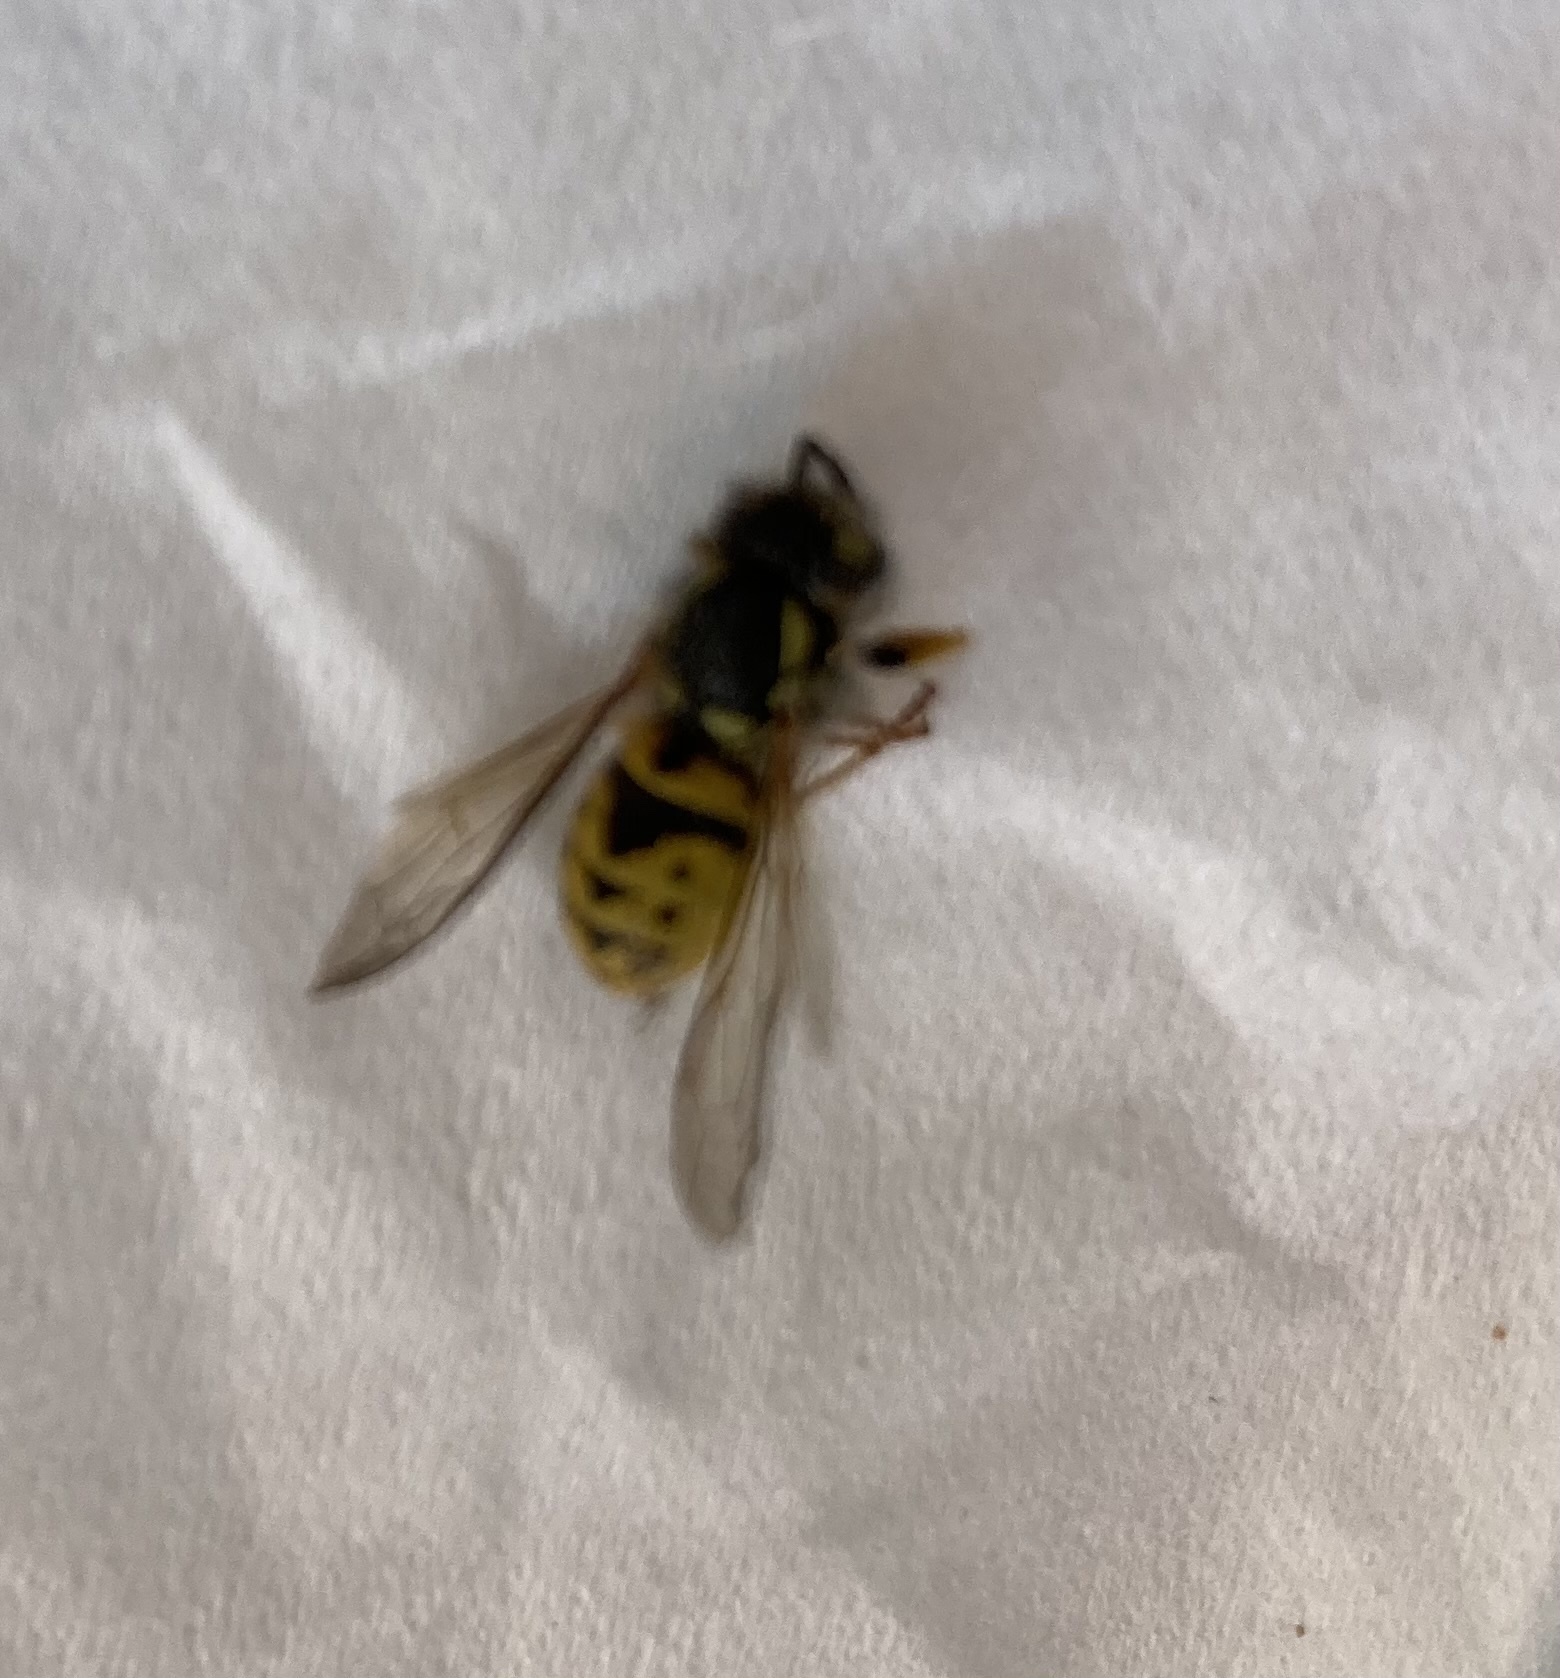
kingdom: Animalia
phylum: Arthropoda
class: Insecta
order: Hymenoptera
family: Vespidae
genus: Vespula
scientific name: Vespula germanica
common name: German wasp
